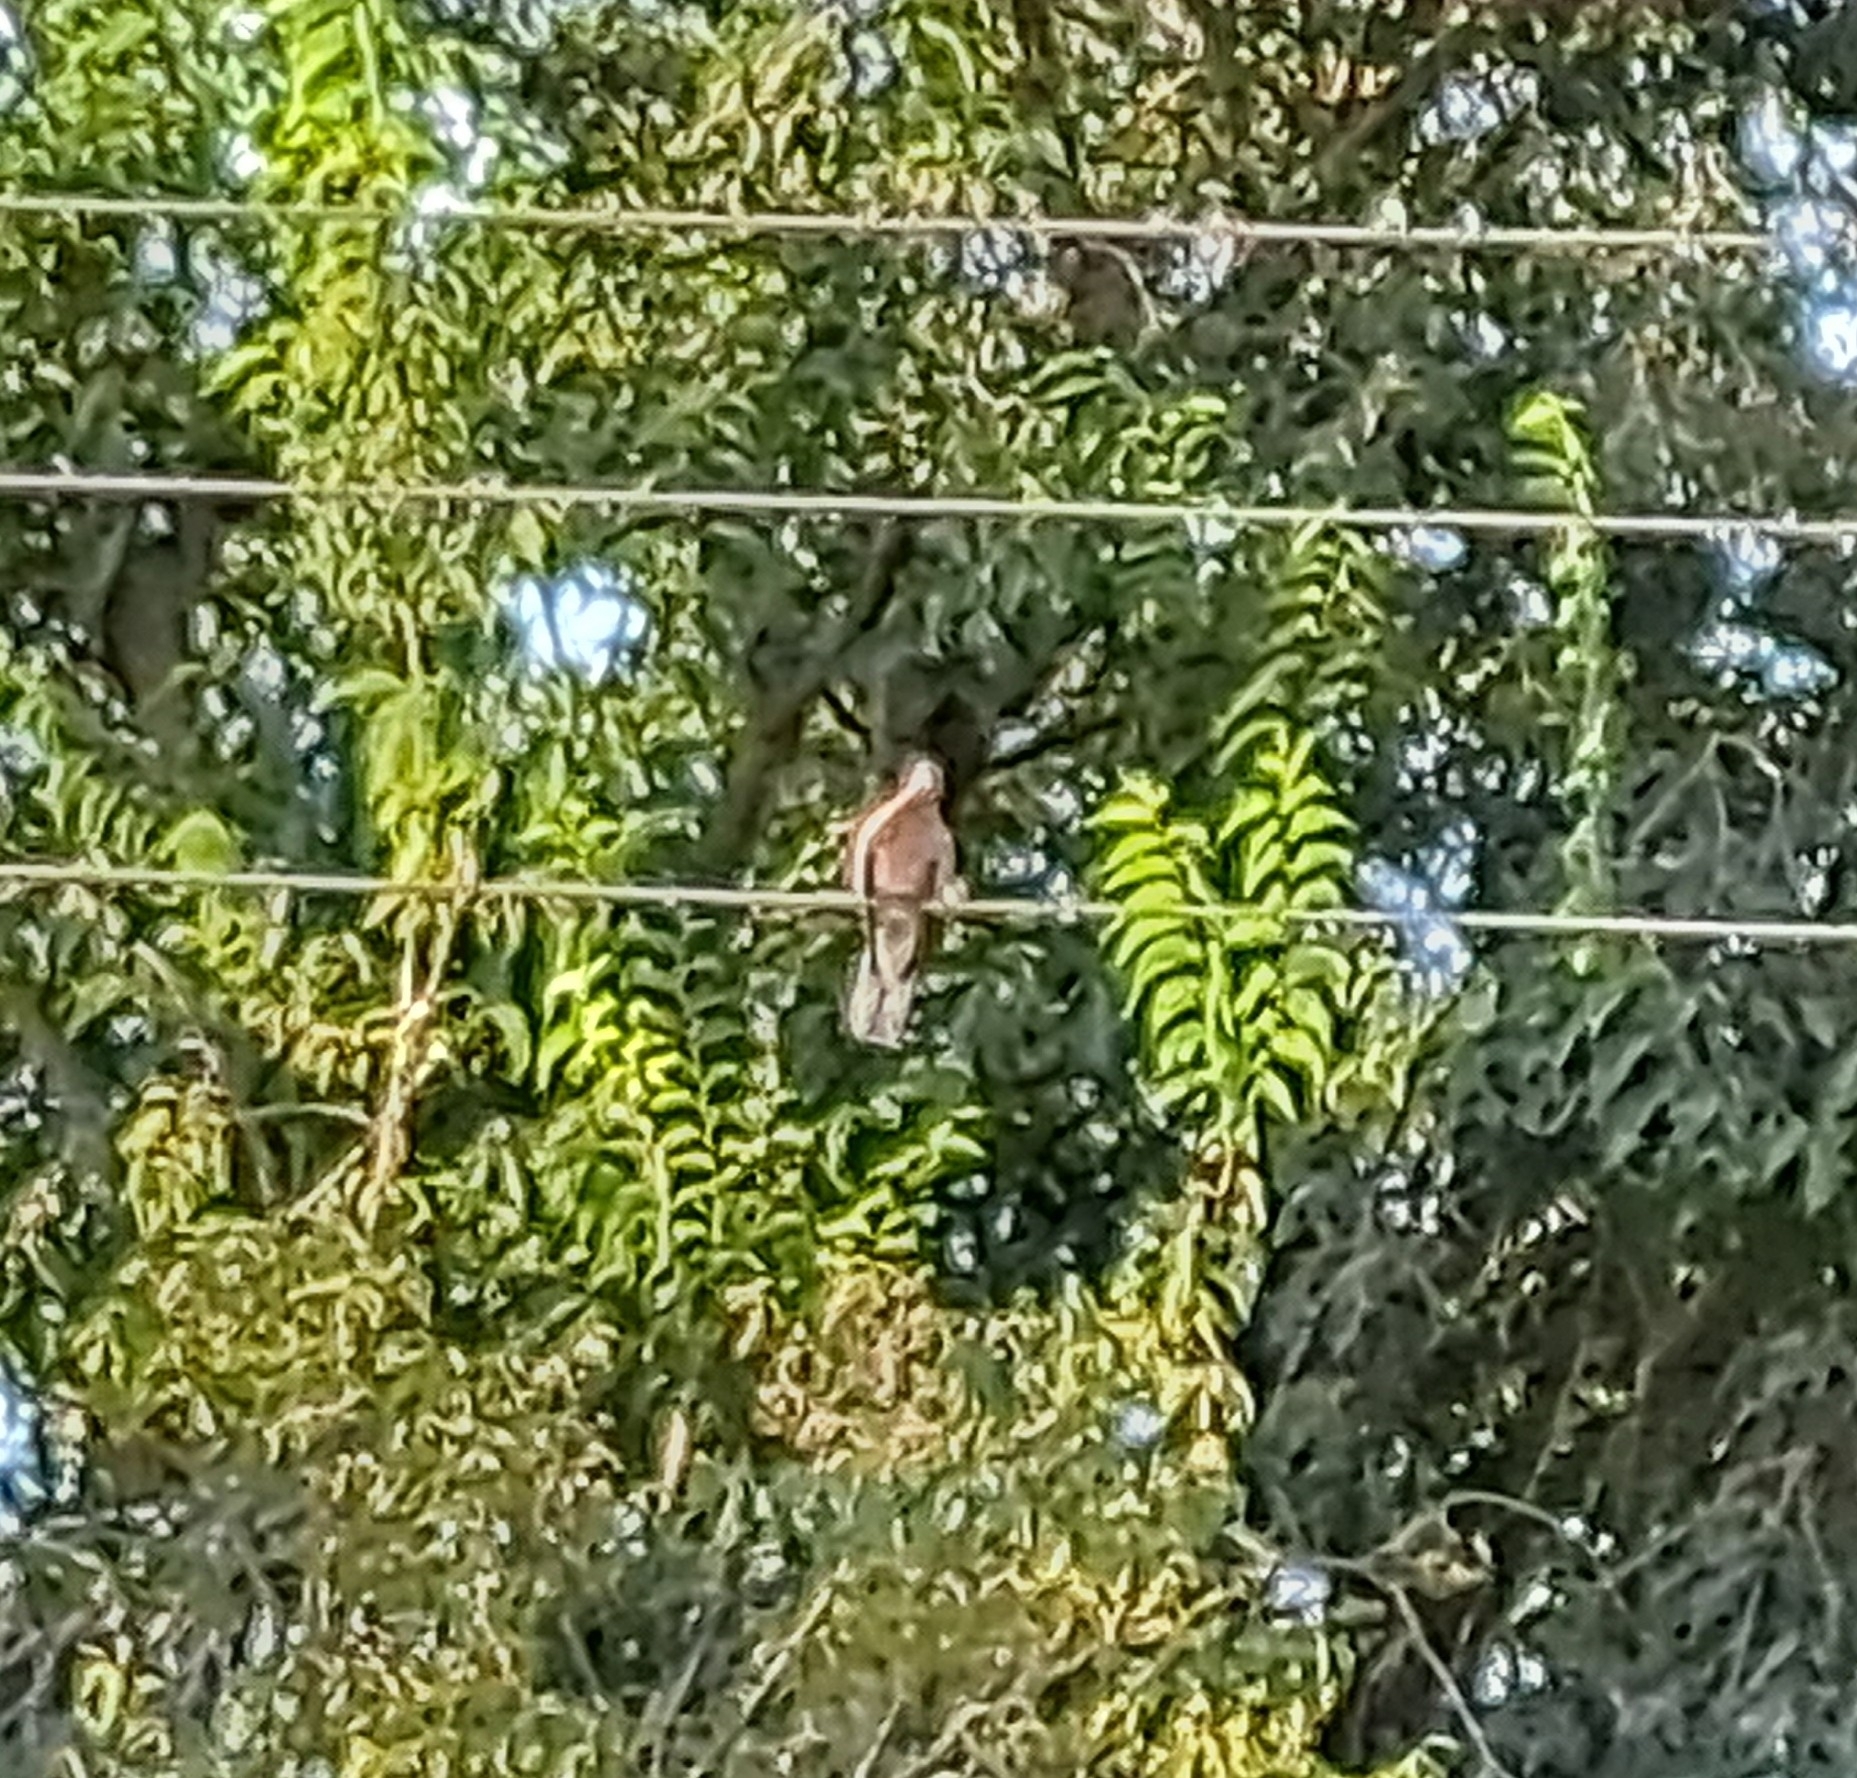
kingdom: Animalia
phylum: Chordata
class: Aves
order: Columbiformes
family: Columbidae
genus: Spilopelia
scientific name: Spilopelia senegalensis
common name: Laughing dove
